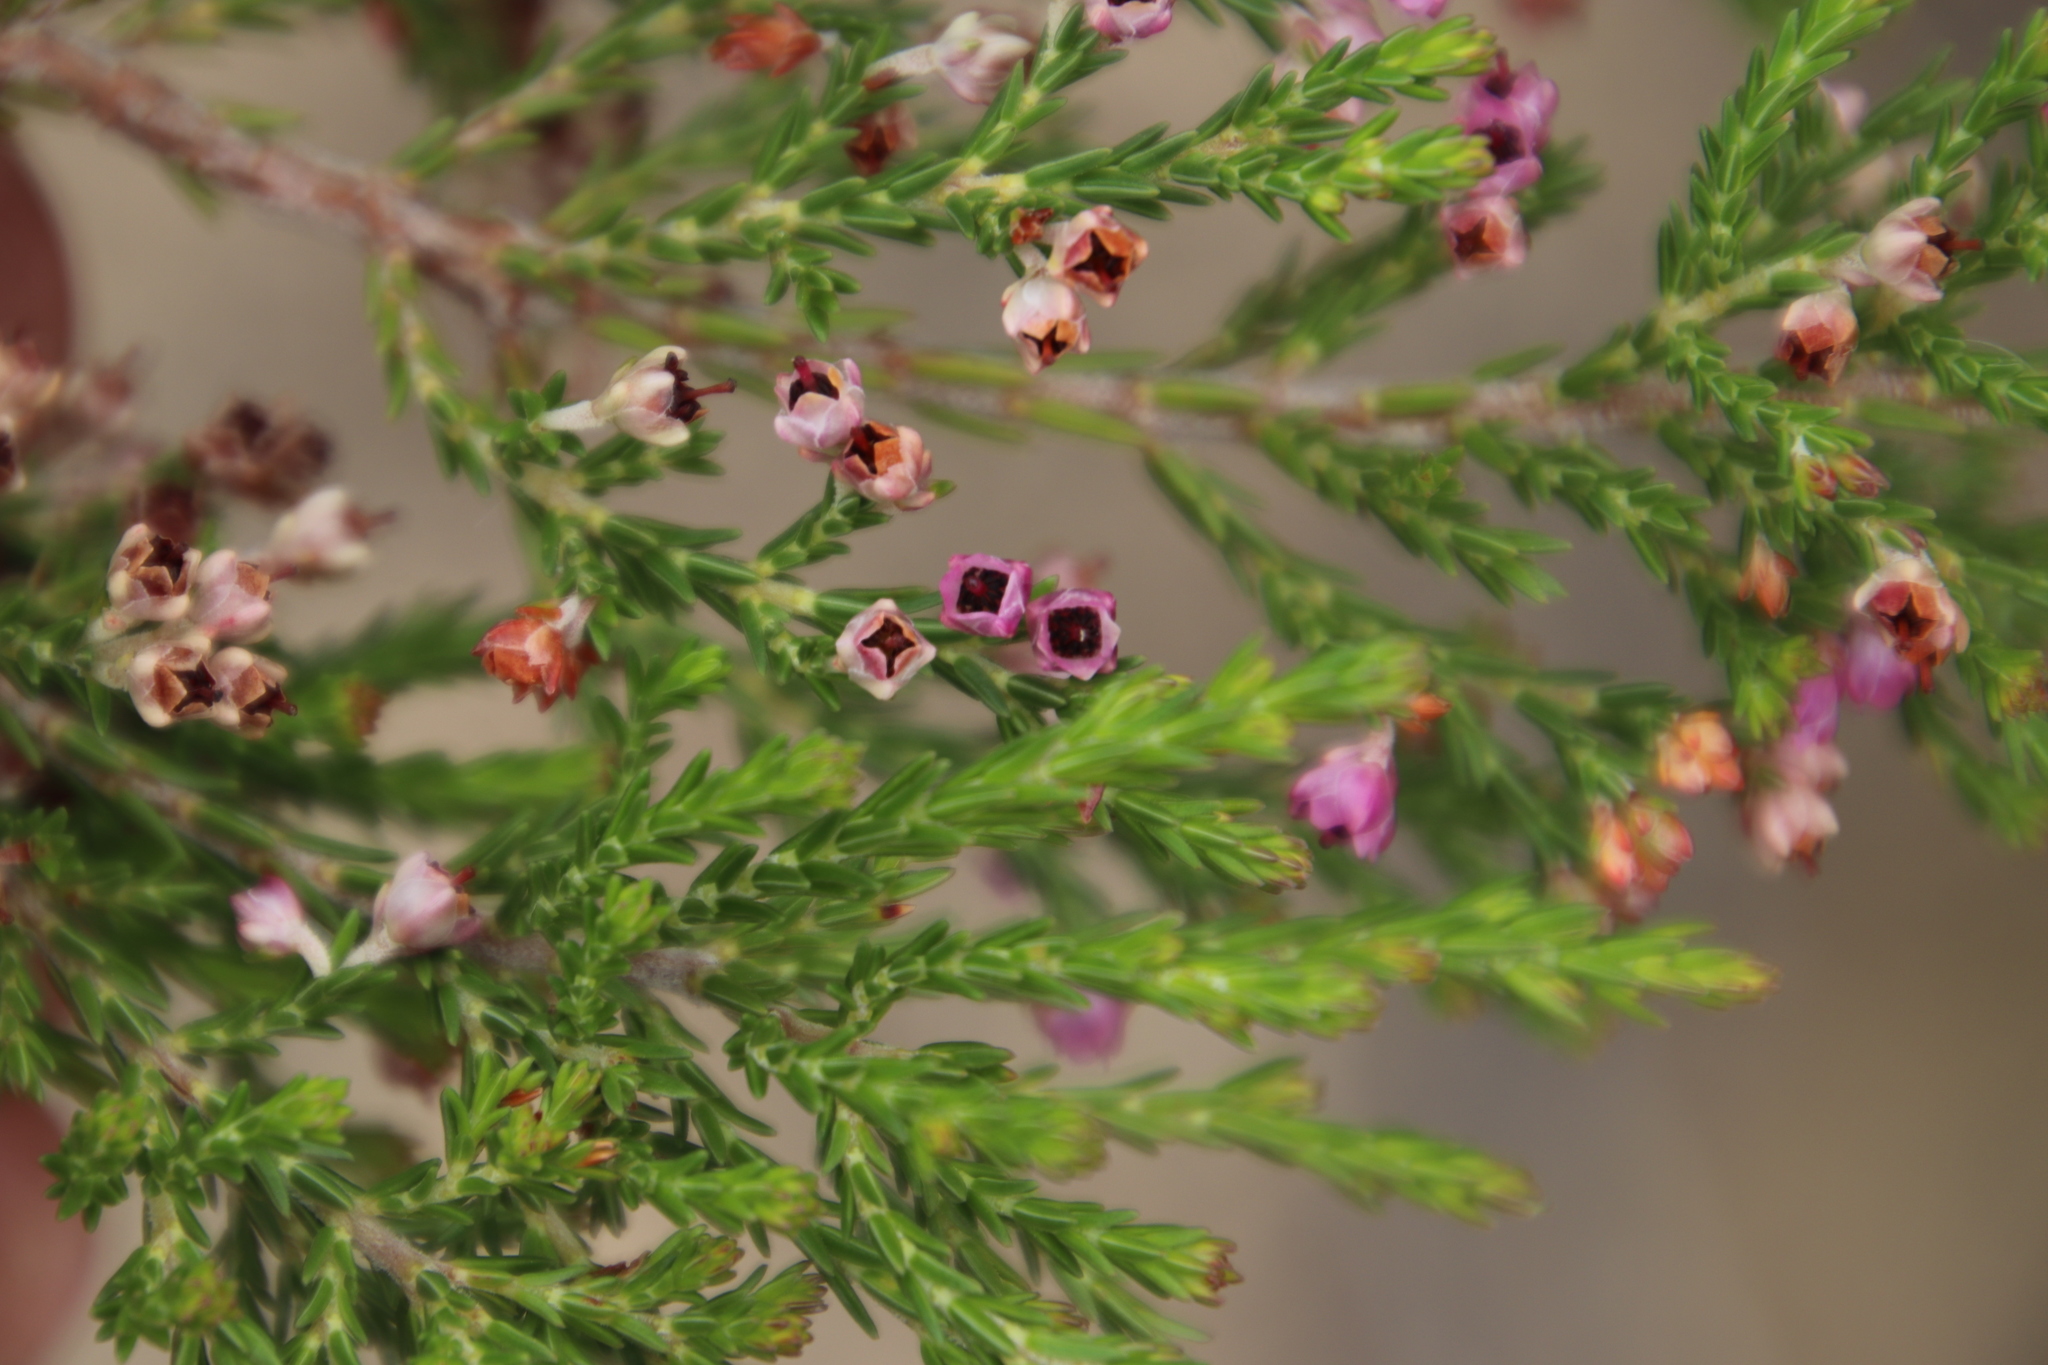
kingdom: Plantae
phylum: Tracheophyta
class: Magnoliopsida
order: Ericales
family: Ericaceae
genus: Erica
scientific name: Erica lucida
